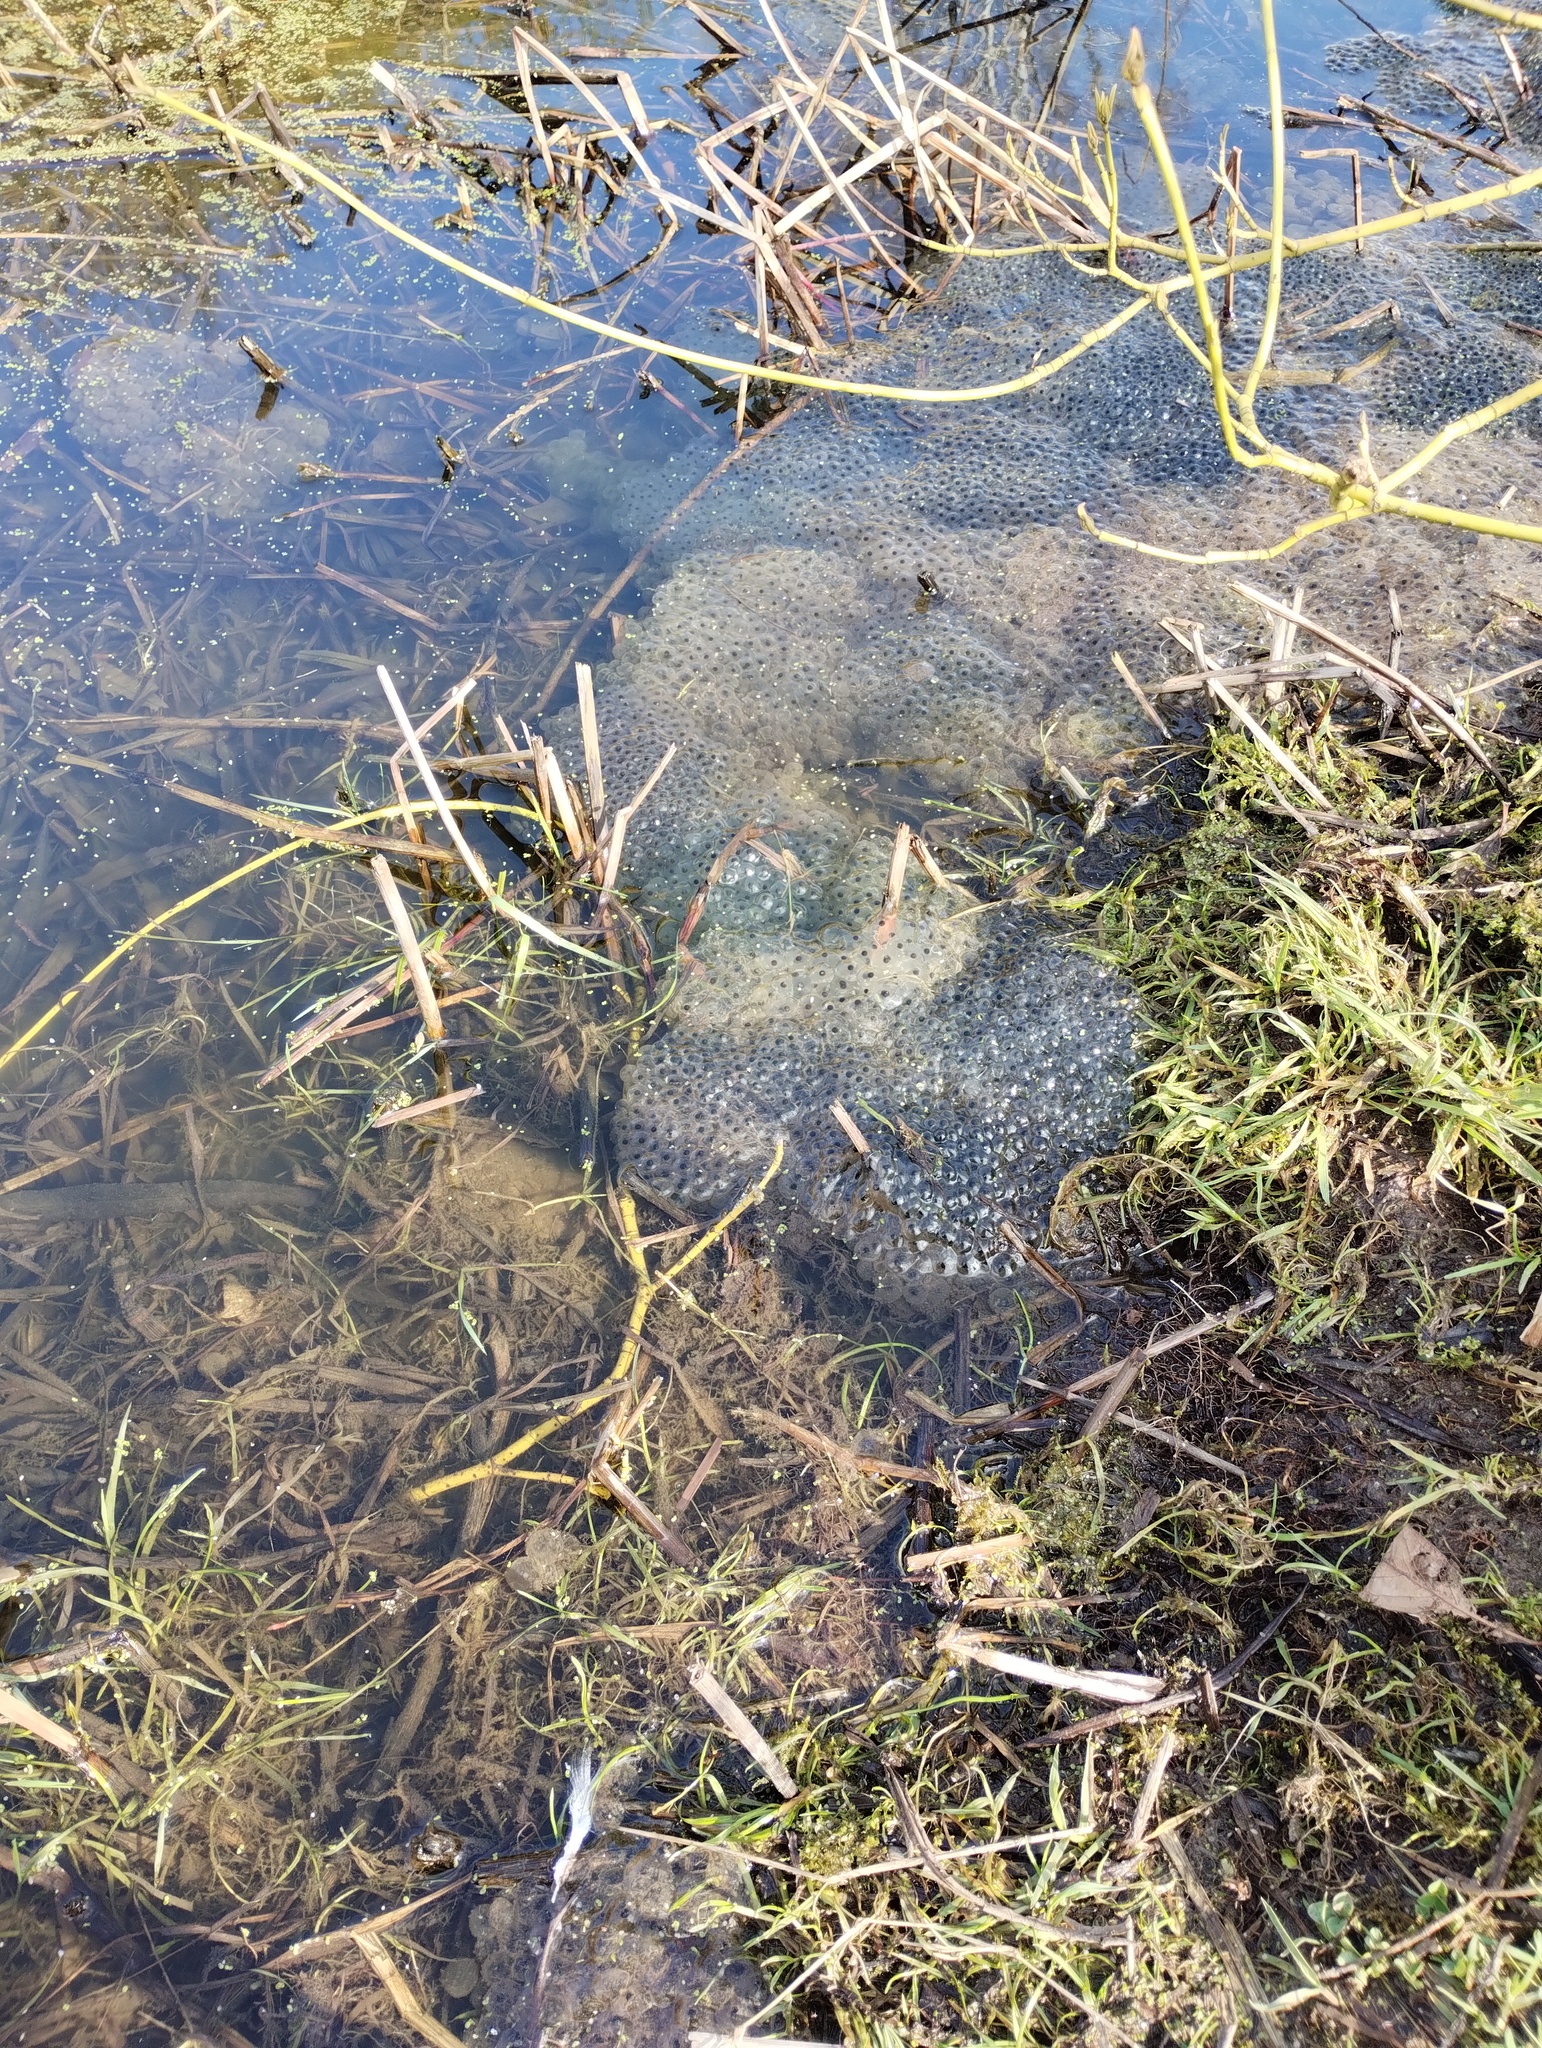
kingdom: Animalia
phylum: Chordata
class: Amphibia
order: Anura
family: Ranidae
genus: Rana
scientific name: Rana temporaria
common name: Common frog
